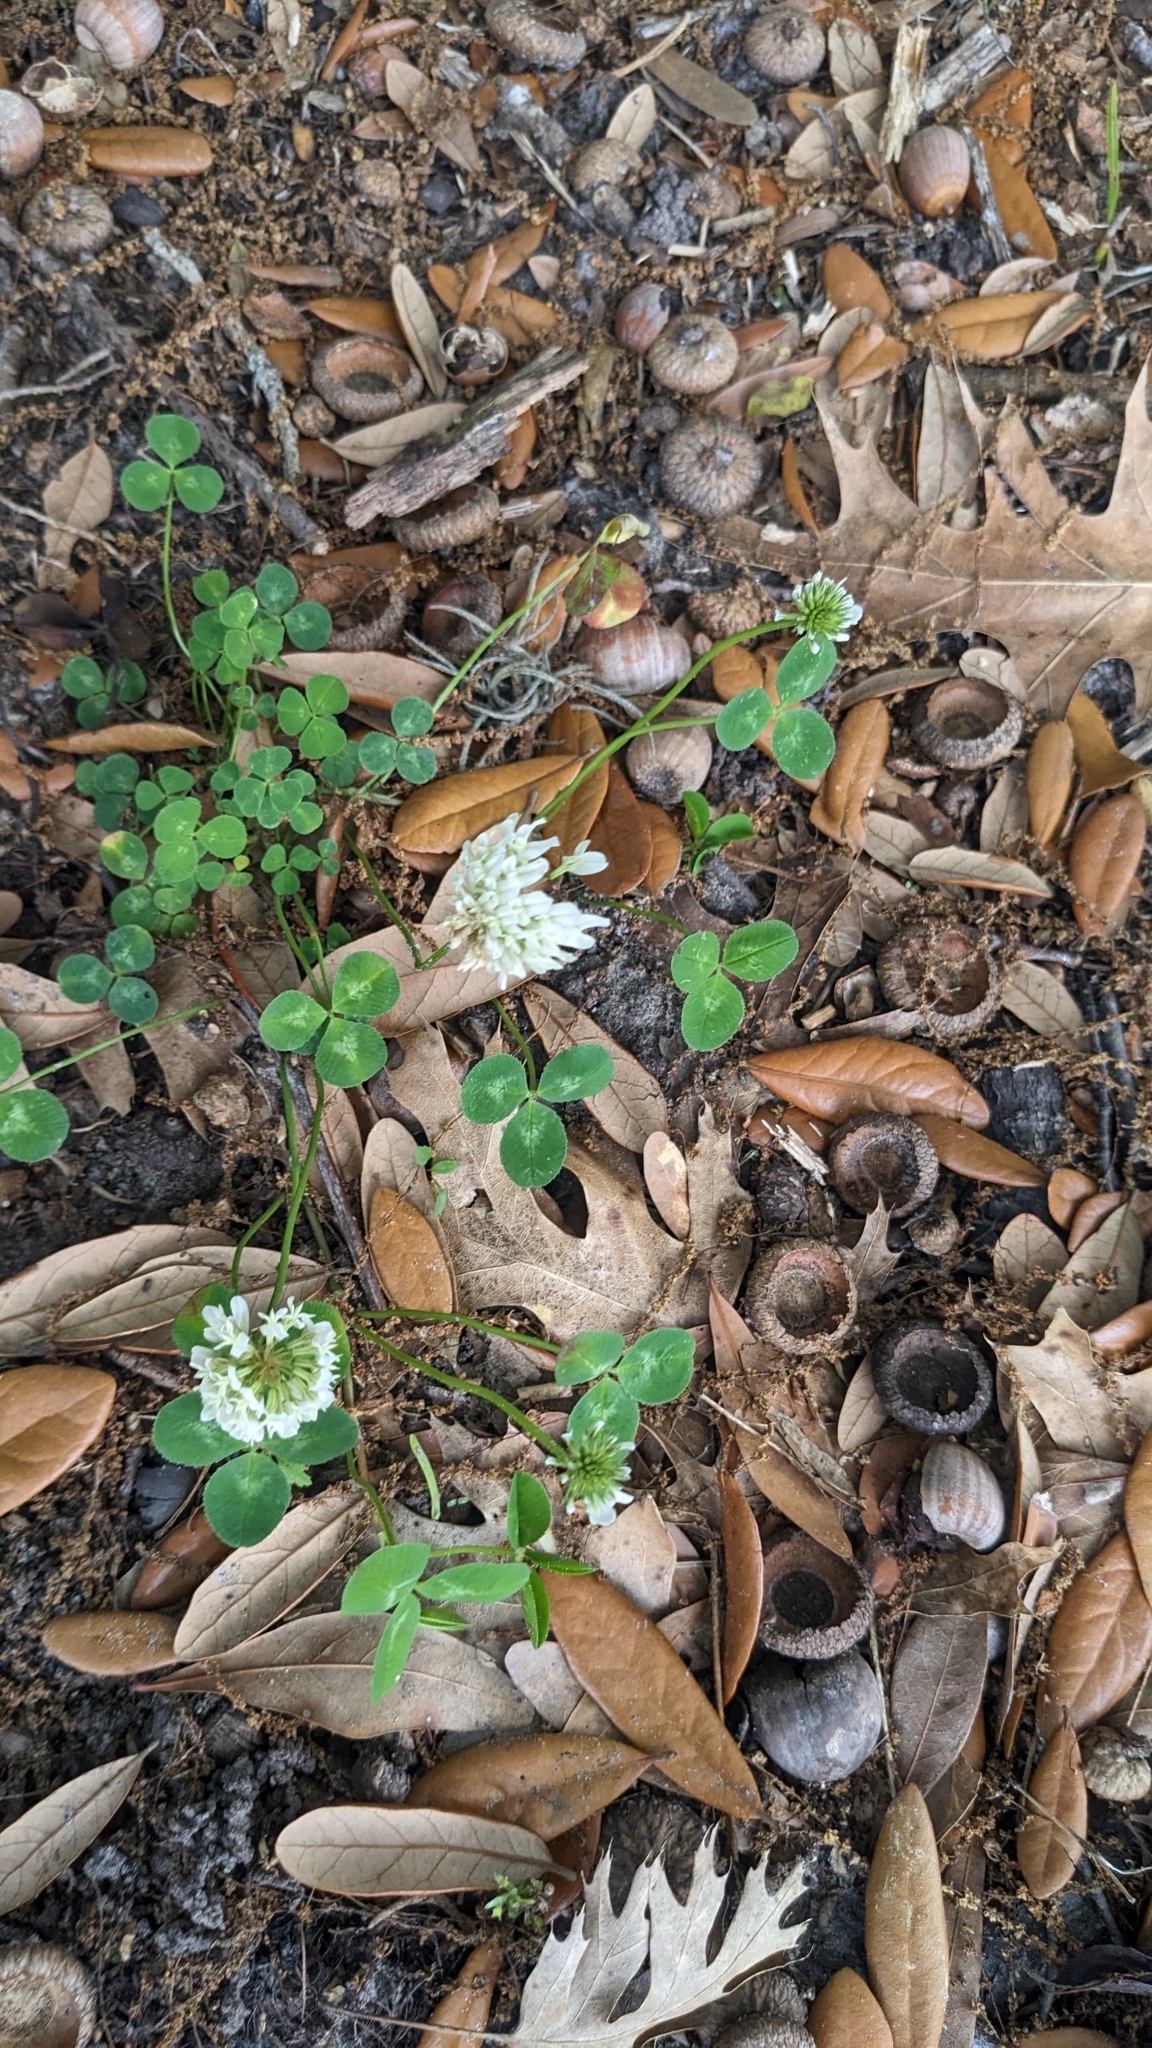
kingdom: Plantae
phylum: Tracheophyta
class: Magnoliopsida
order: Fabales
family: Fabaceae
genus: Trifolium
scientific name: Trifolium repens
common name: White clover
